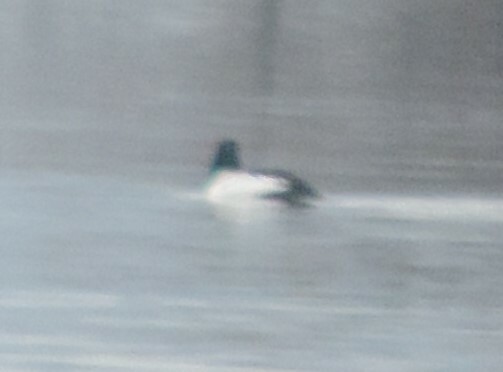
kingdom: Animalia
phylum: Chordata
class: Aves
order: Anseriformes
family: Anatidae
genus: Bucephala
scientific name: Bucephala clangula
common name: Common goldeneye
